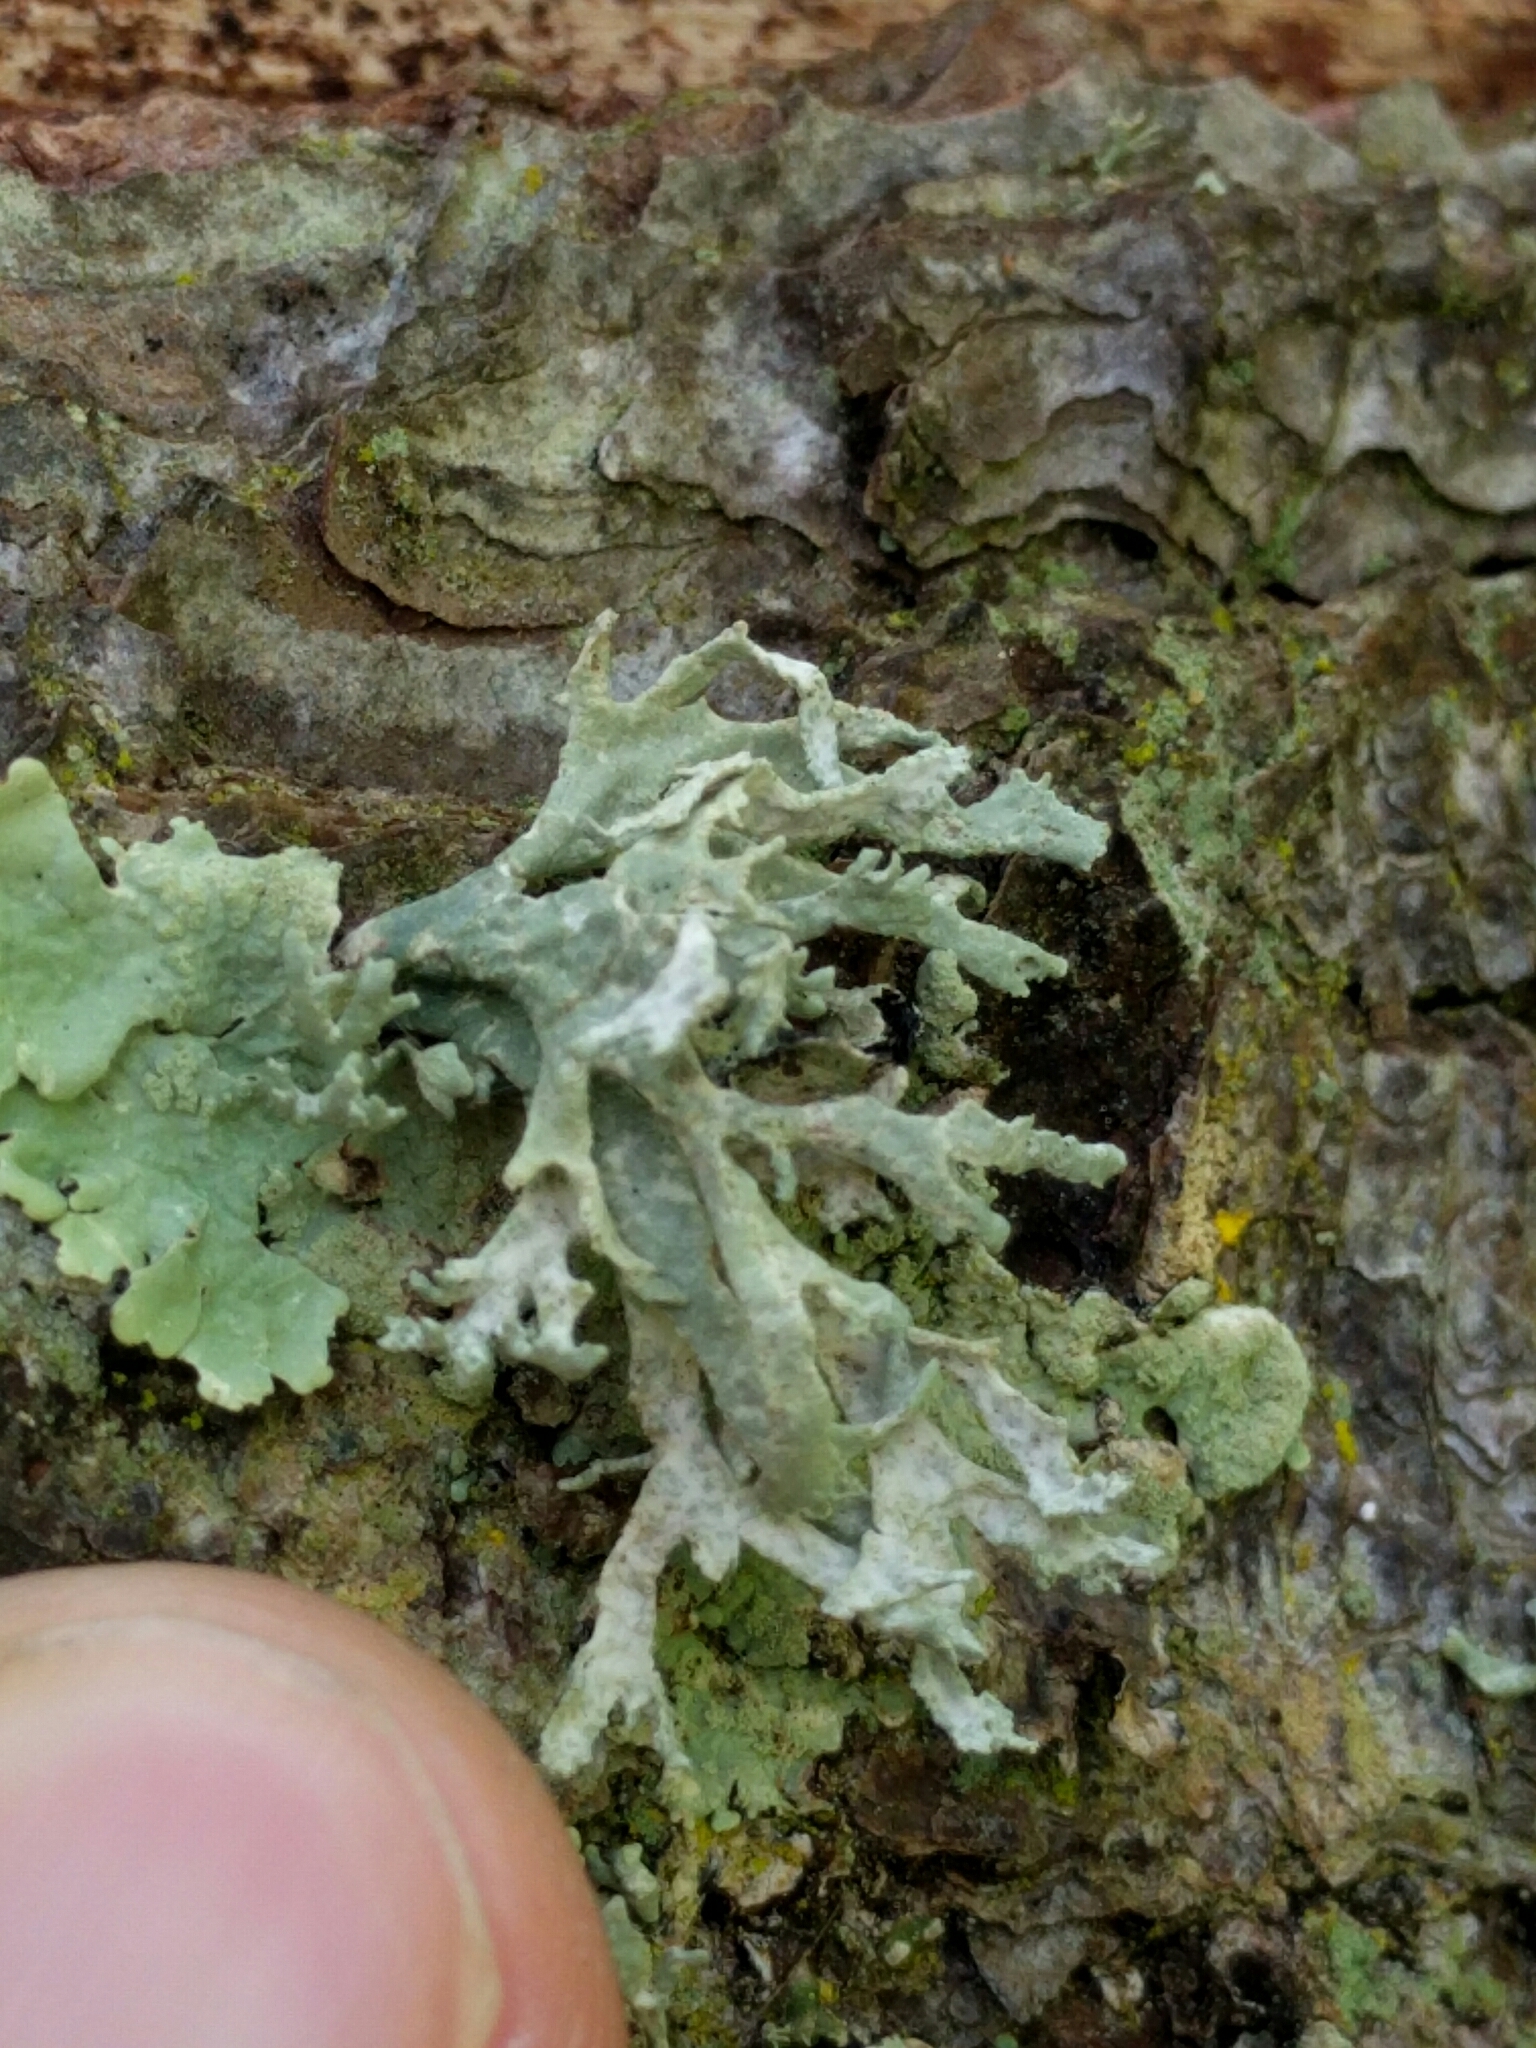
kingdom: Fungi
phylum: Ascomycota
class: Lecanoromycetes
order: Lecanorales
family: Parmeliaceae
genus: Evernia
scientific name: Evernia prunastri
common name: Oak moss
